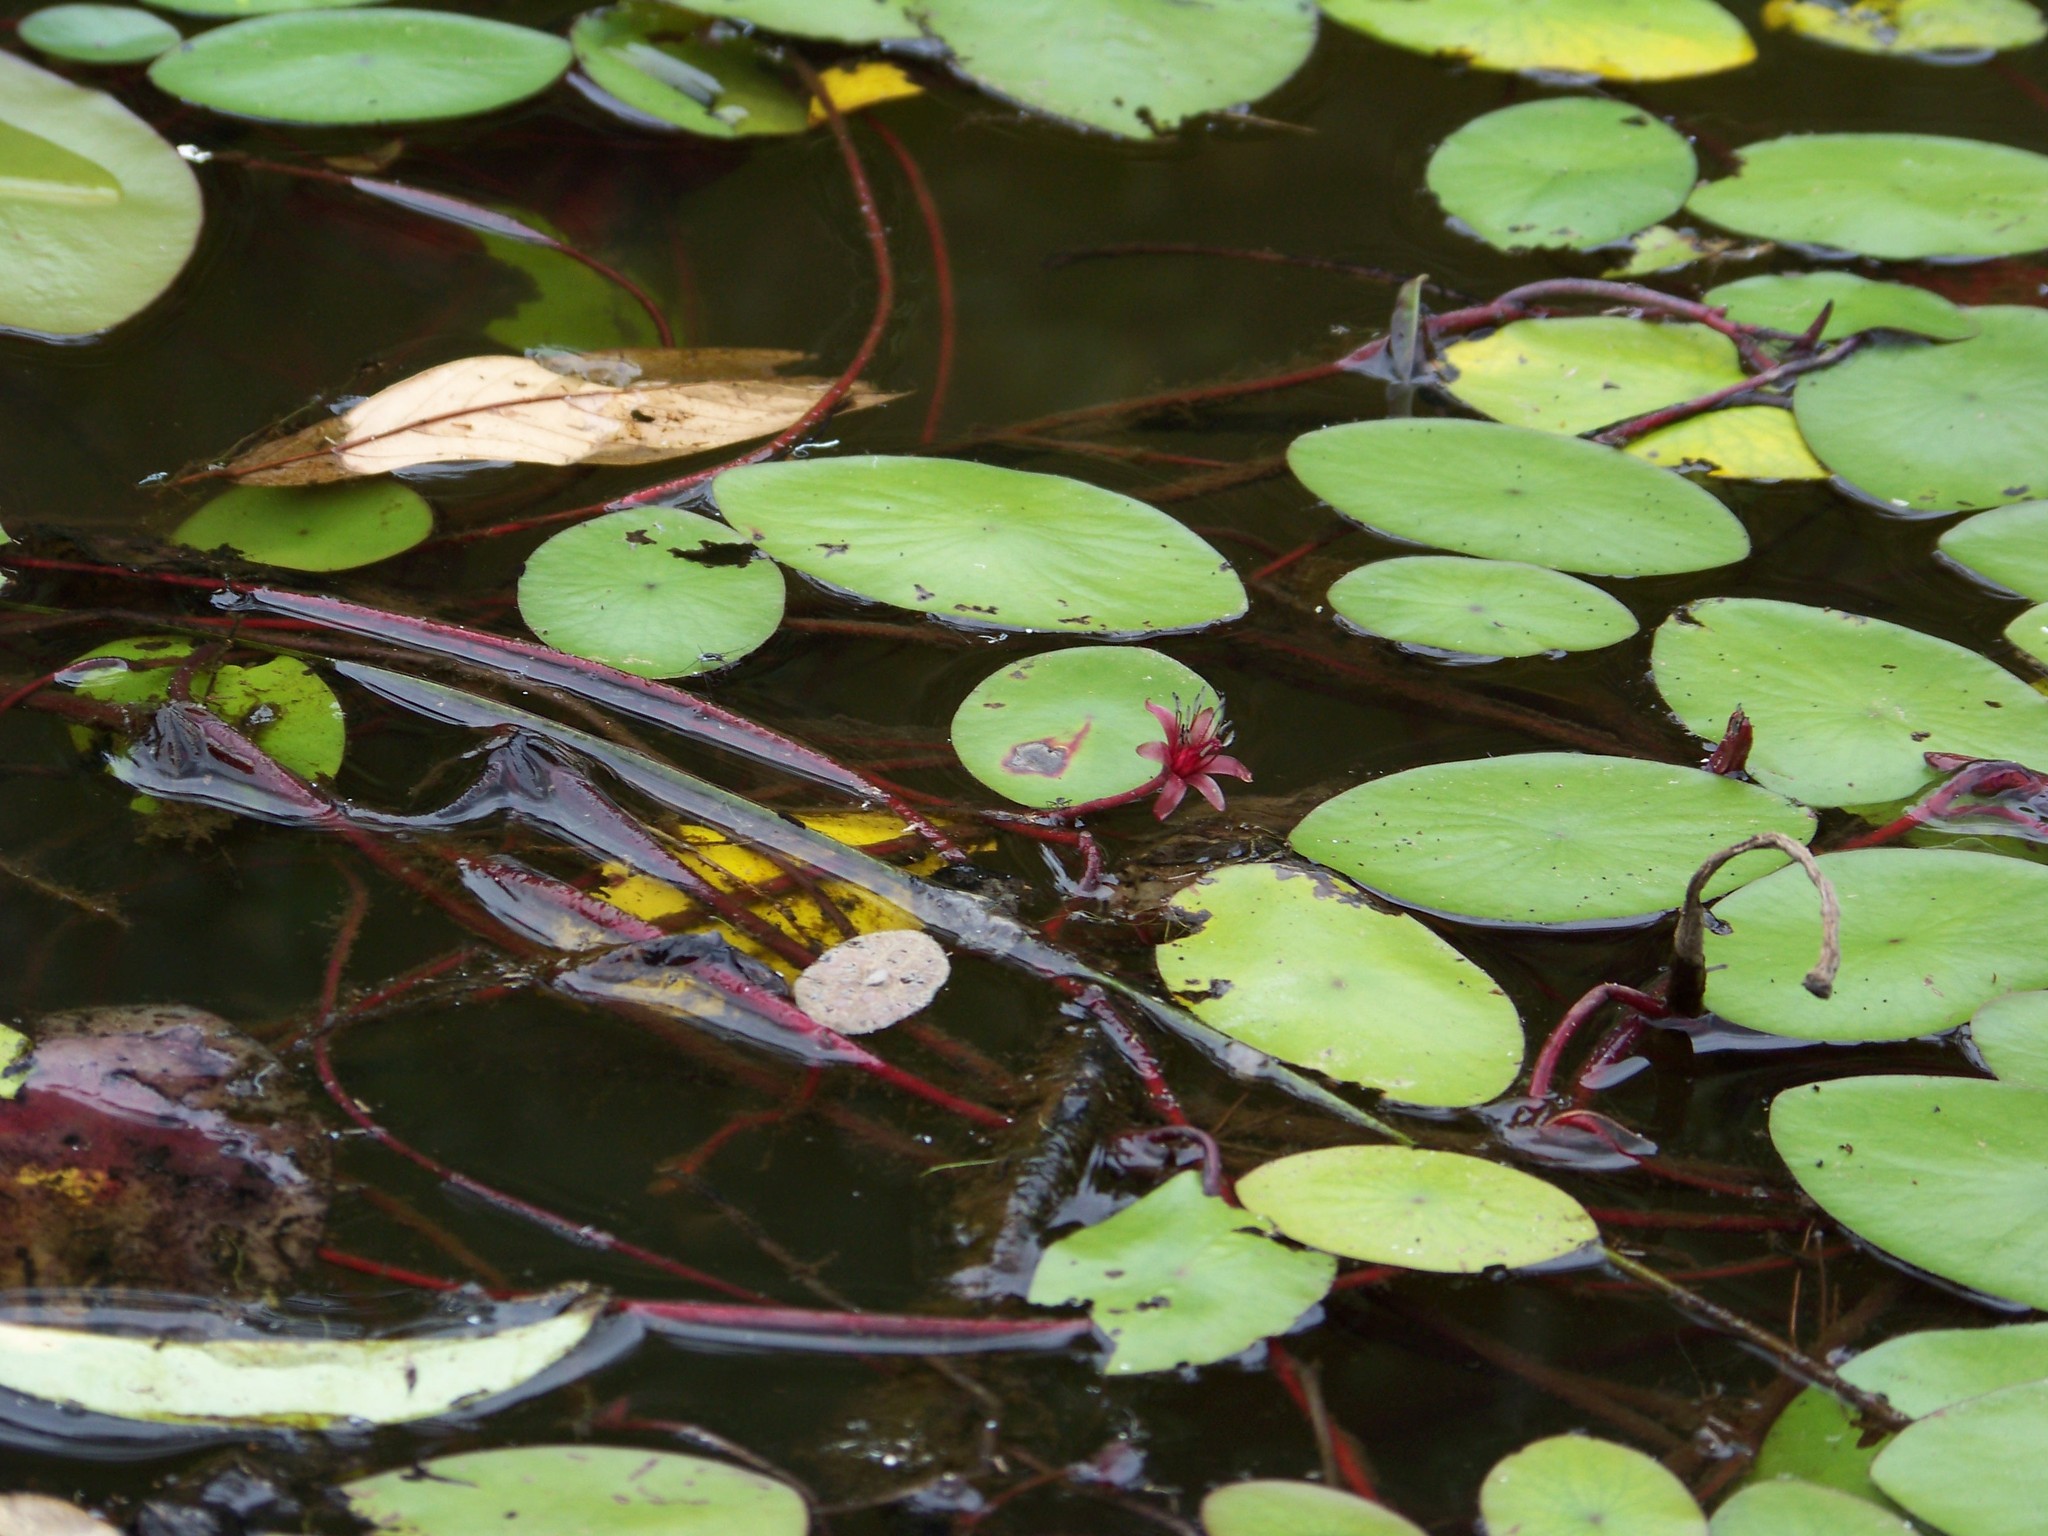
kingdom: Plantae
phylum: Tracheophyta
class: Magnoliopsida
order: Nymphaeales
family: Cabombaceae
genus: Brasenia
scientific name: Brasenia schreberi
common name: Water-shield
